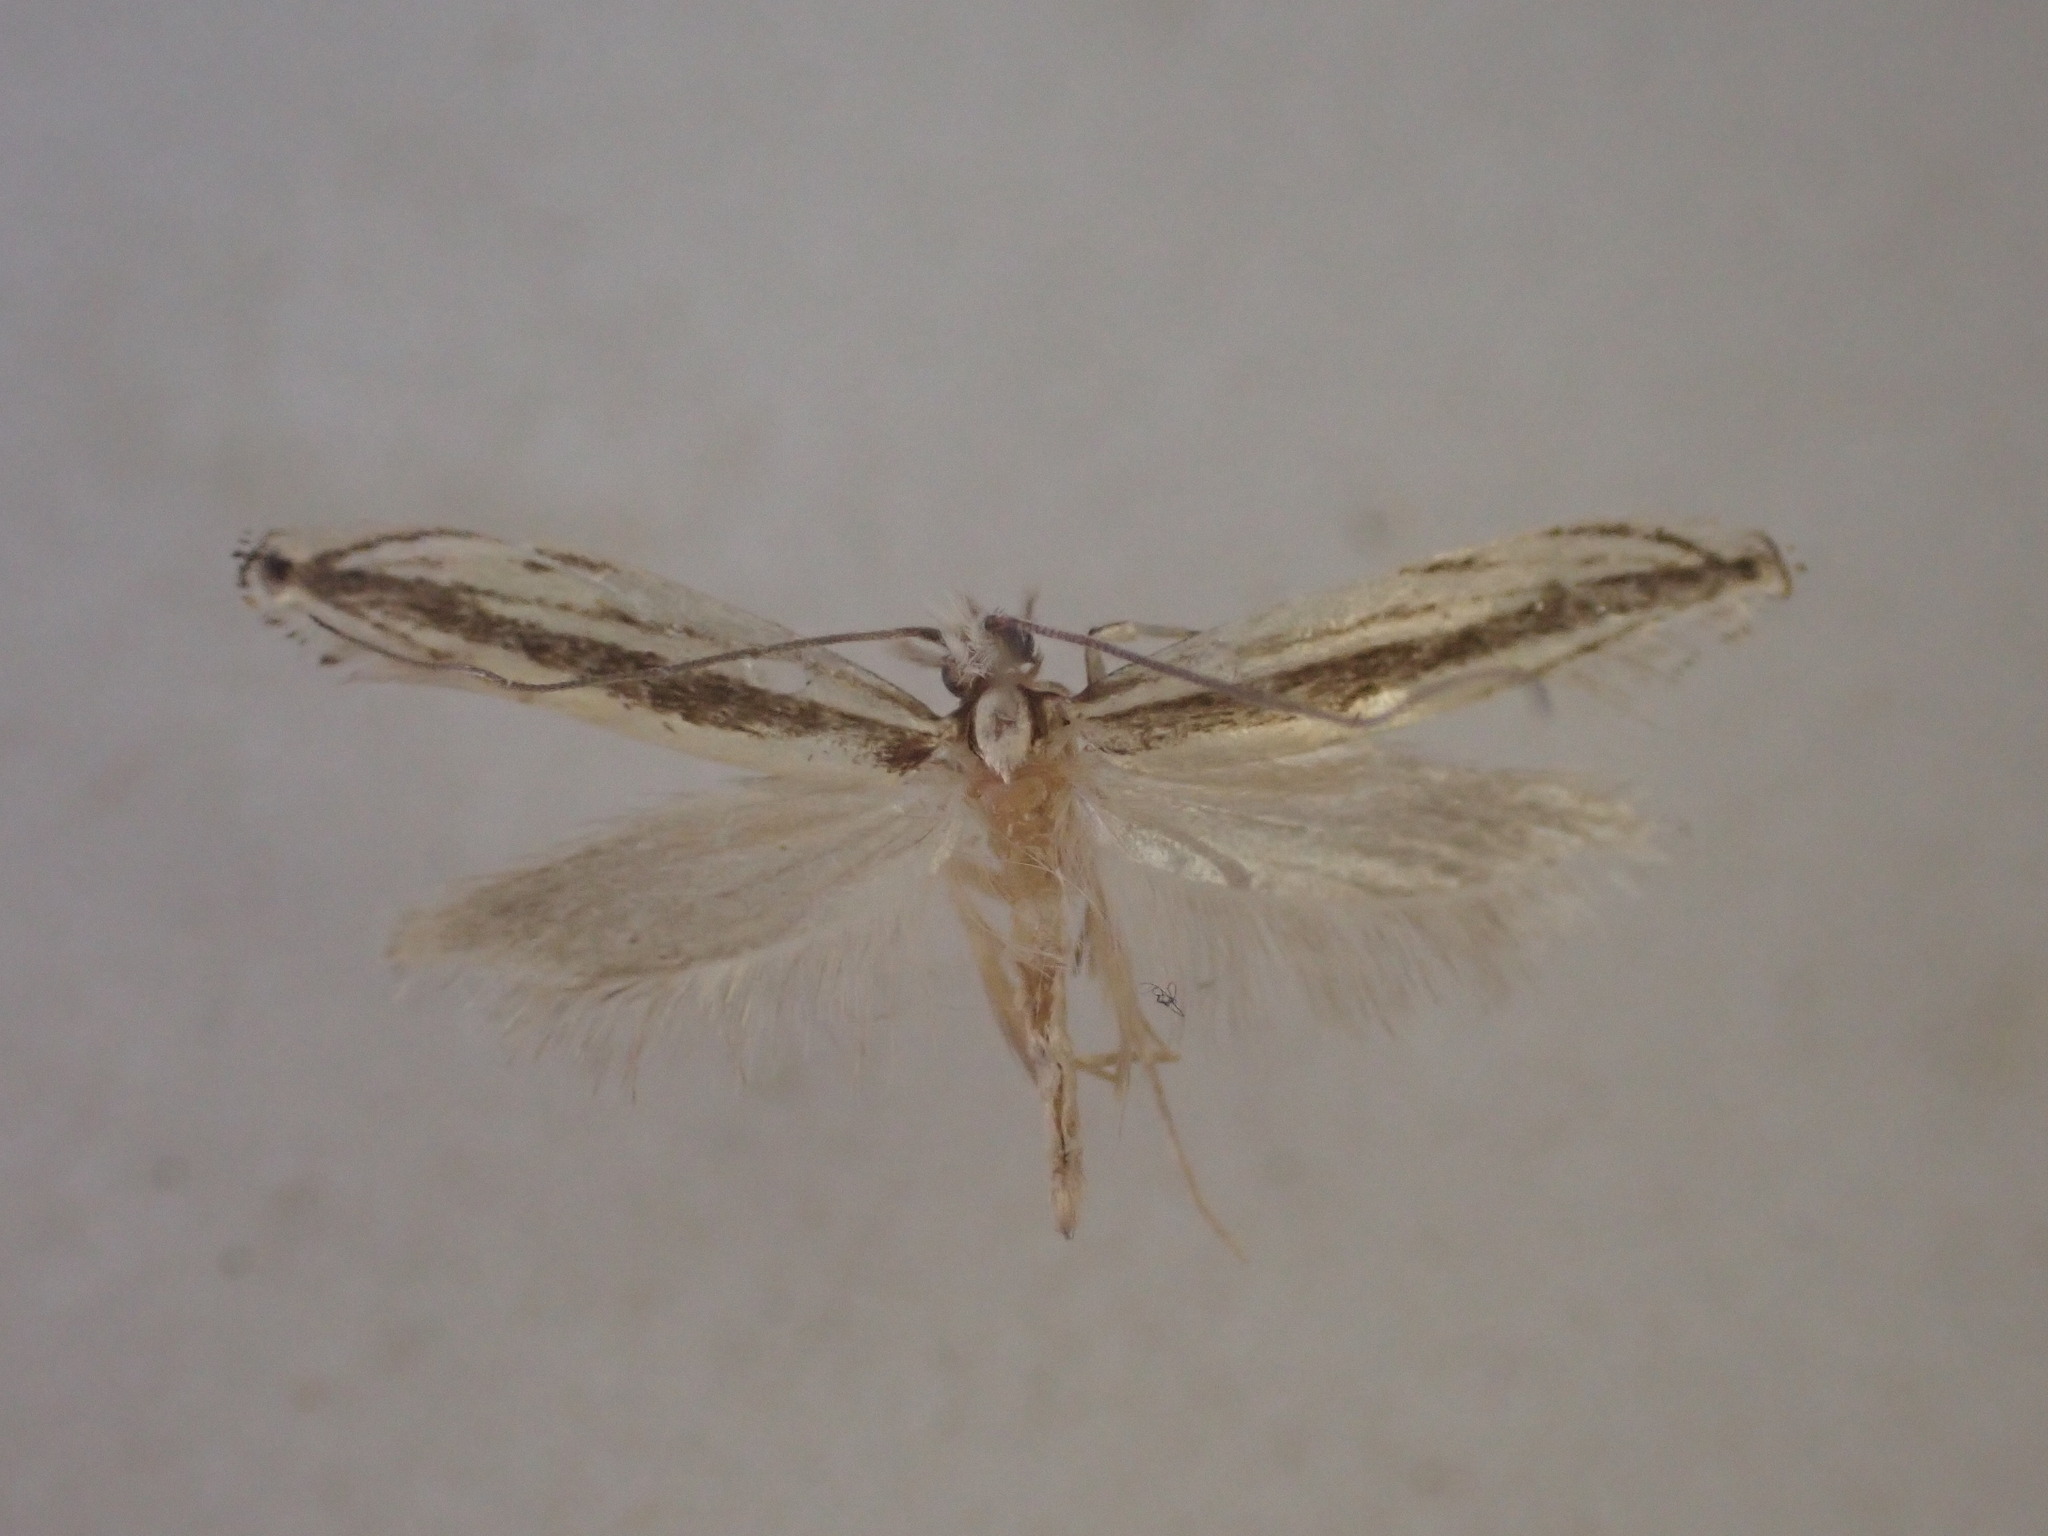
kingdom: Animalia
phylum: Arthropoda
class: Insecta
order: Lepidoptera
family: Tineidae
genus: Erechthias
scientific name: Erechthias stilbella
